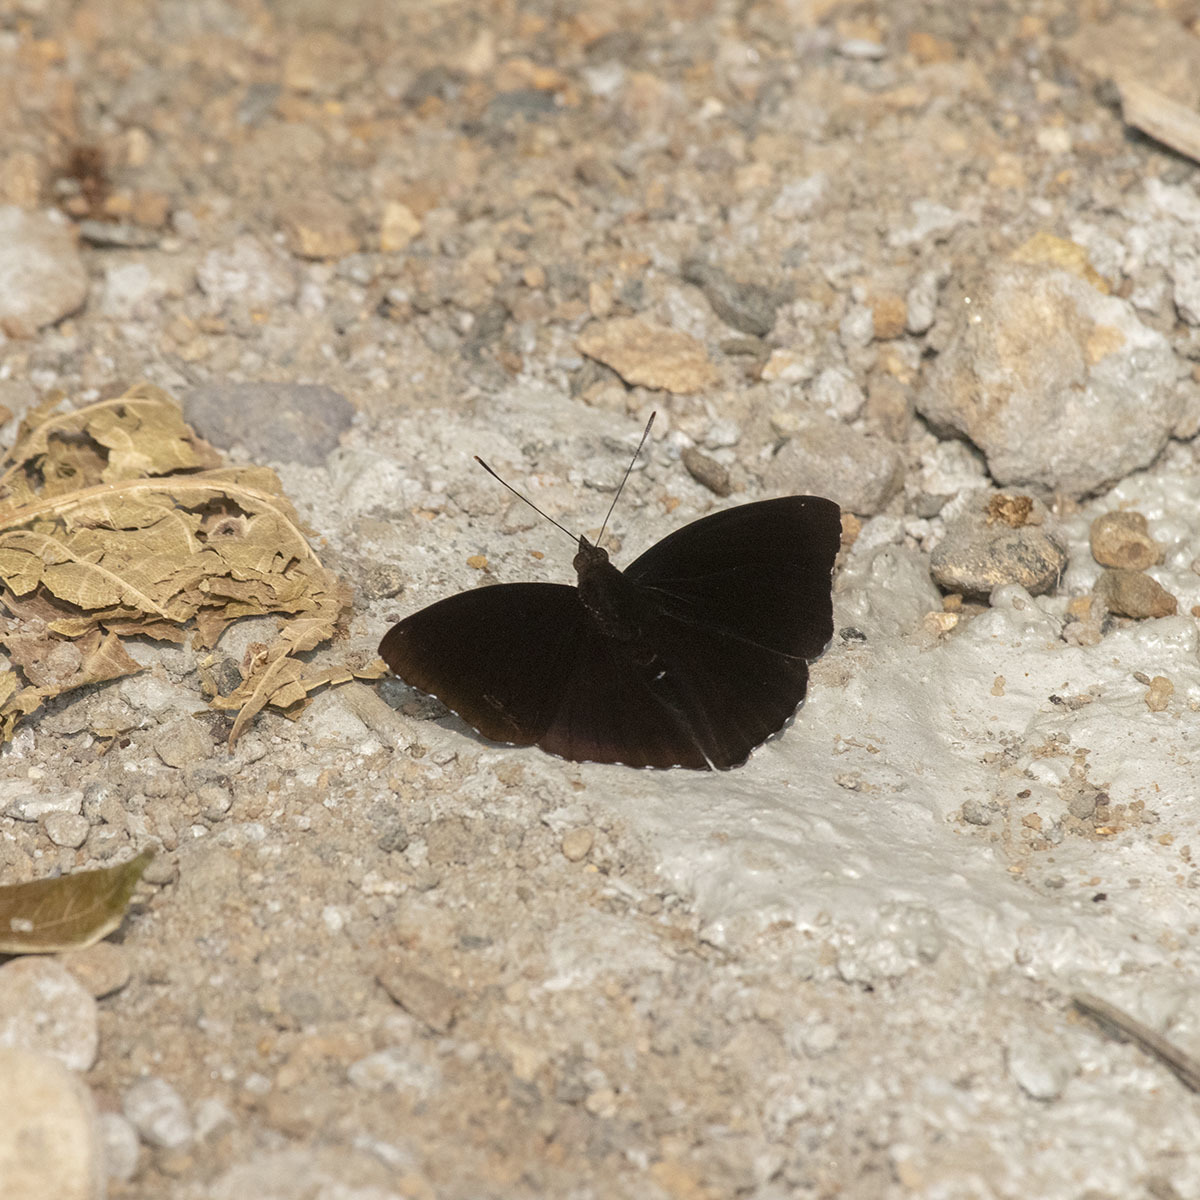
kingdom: Animalia
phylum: Arthropoda
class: Insecta
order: Lepidoptera
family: Nymphalidae
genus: Apatura
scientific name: Apatura Rohana spec
